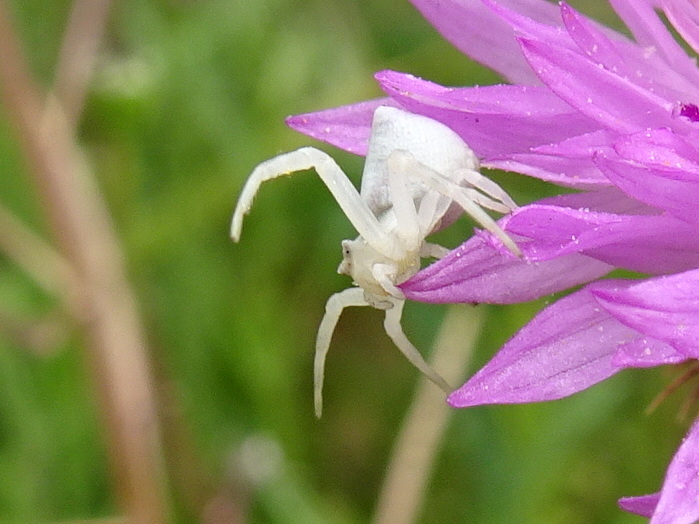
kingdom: Animalia
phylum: Arthropoda
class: Arachnida
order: Araneae
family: Thomisidae
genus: Thomisus
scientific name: Thomisus onustus
